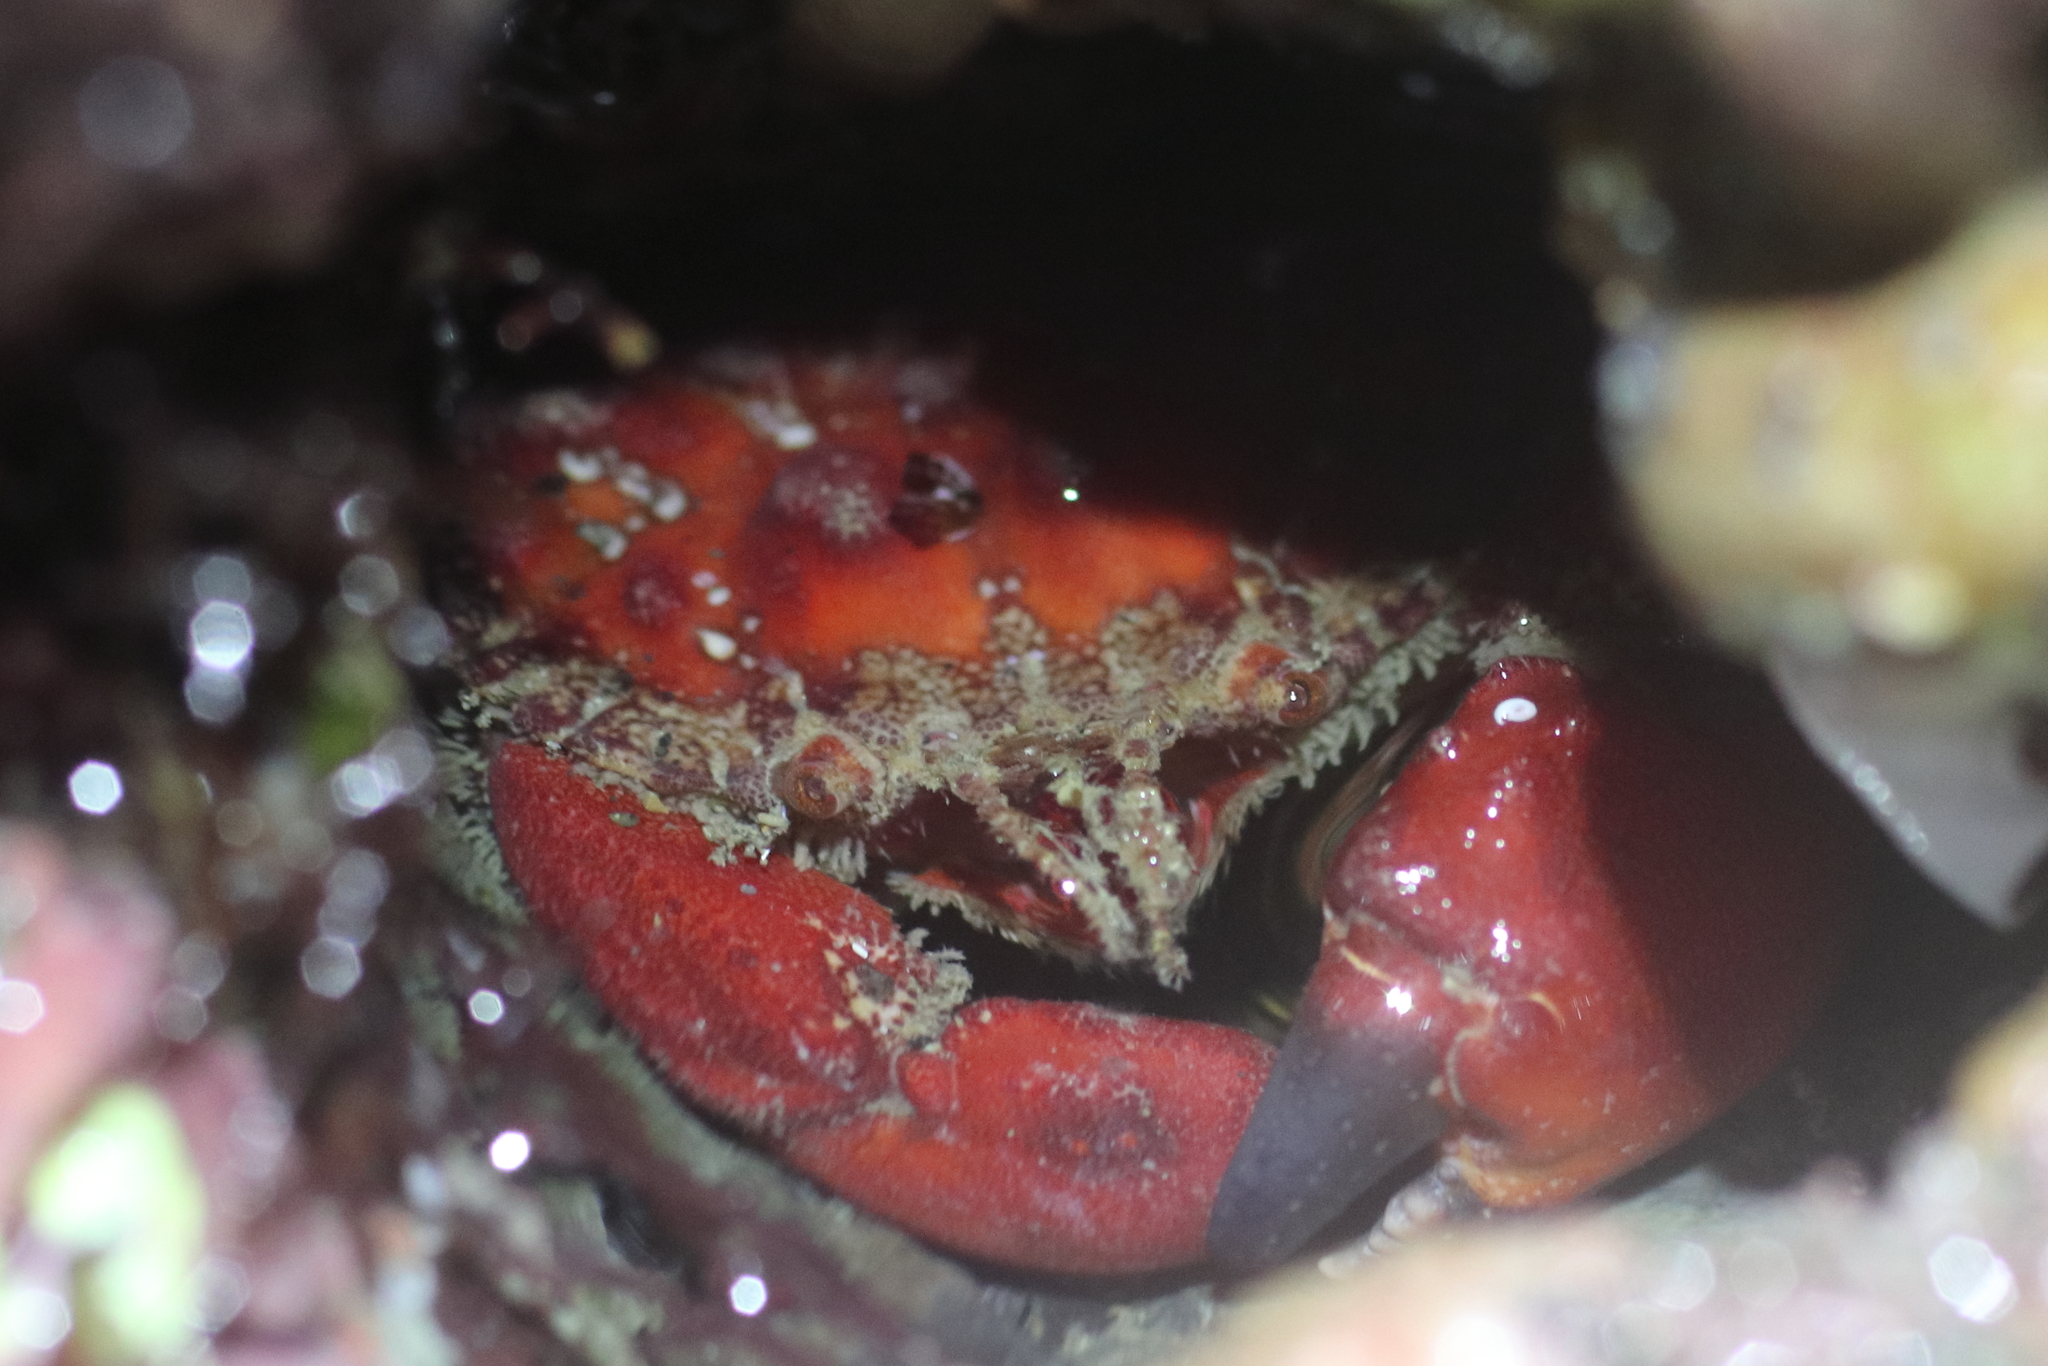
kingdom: Animalia
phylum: Arthropoda
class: Malacostraca
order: Decapoda
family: Cancridae
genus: Glebocarcinus
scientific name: Glebocarcinus oregonensis
